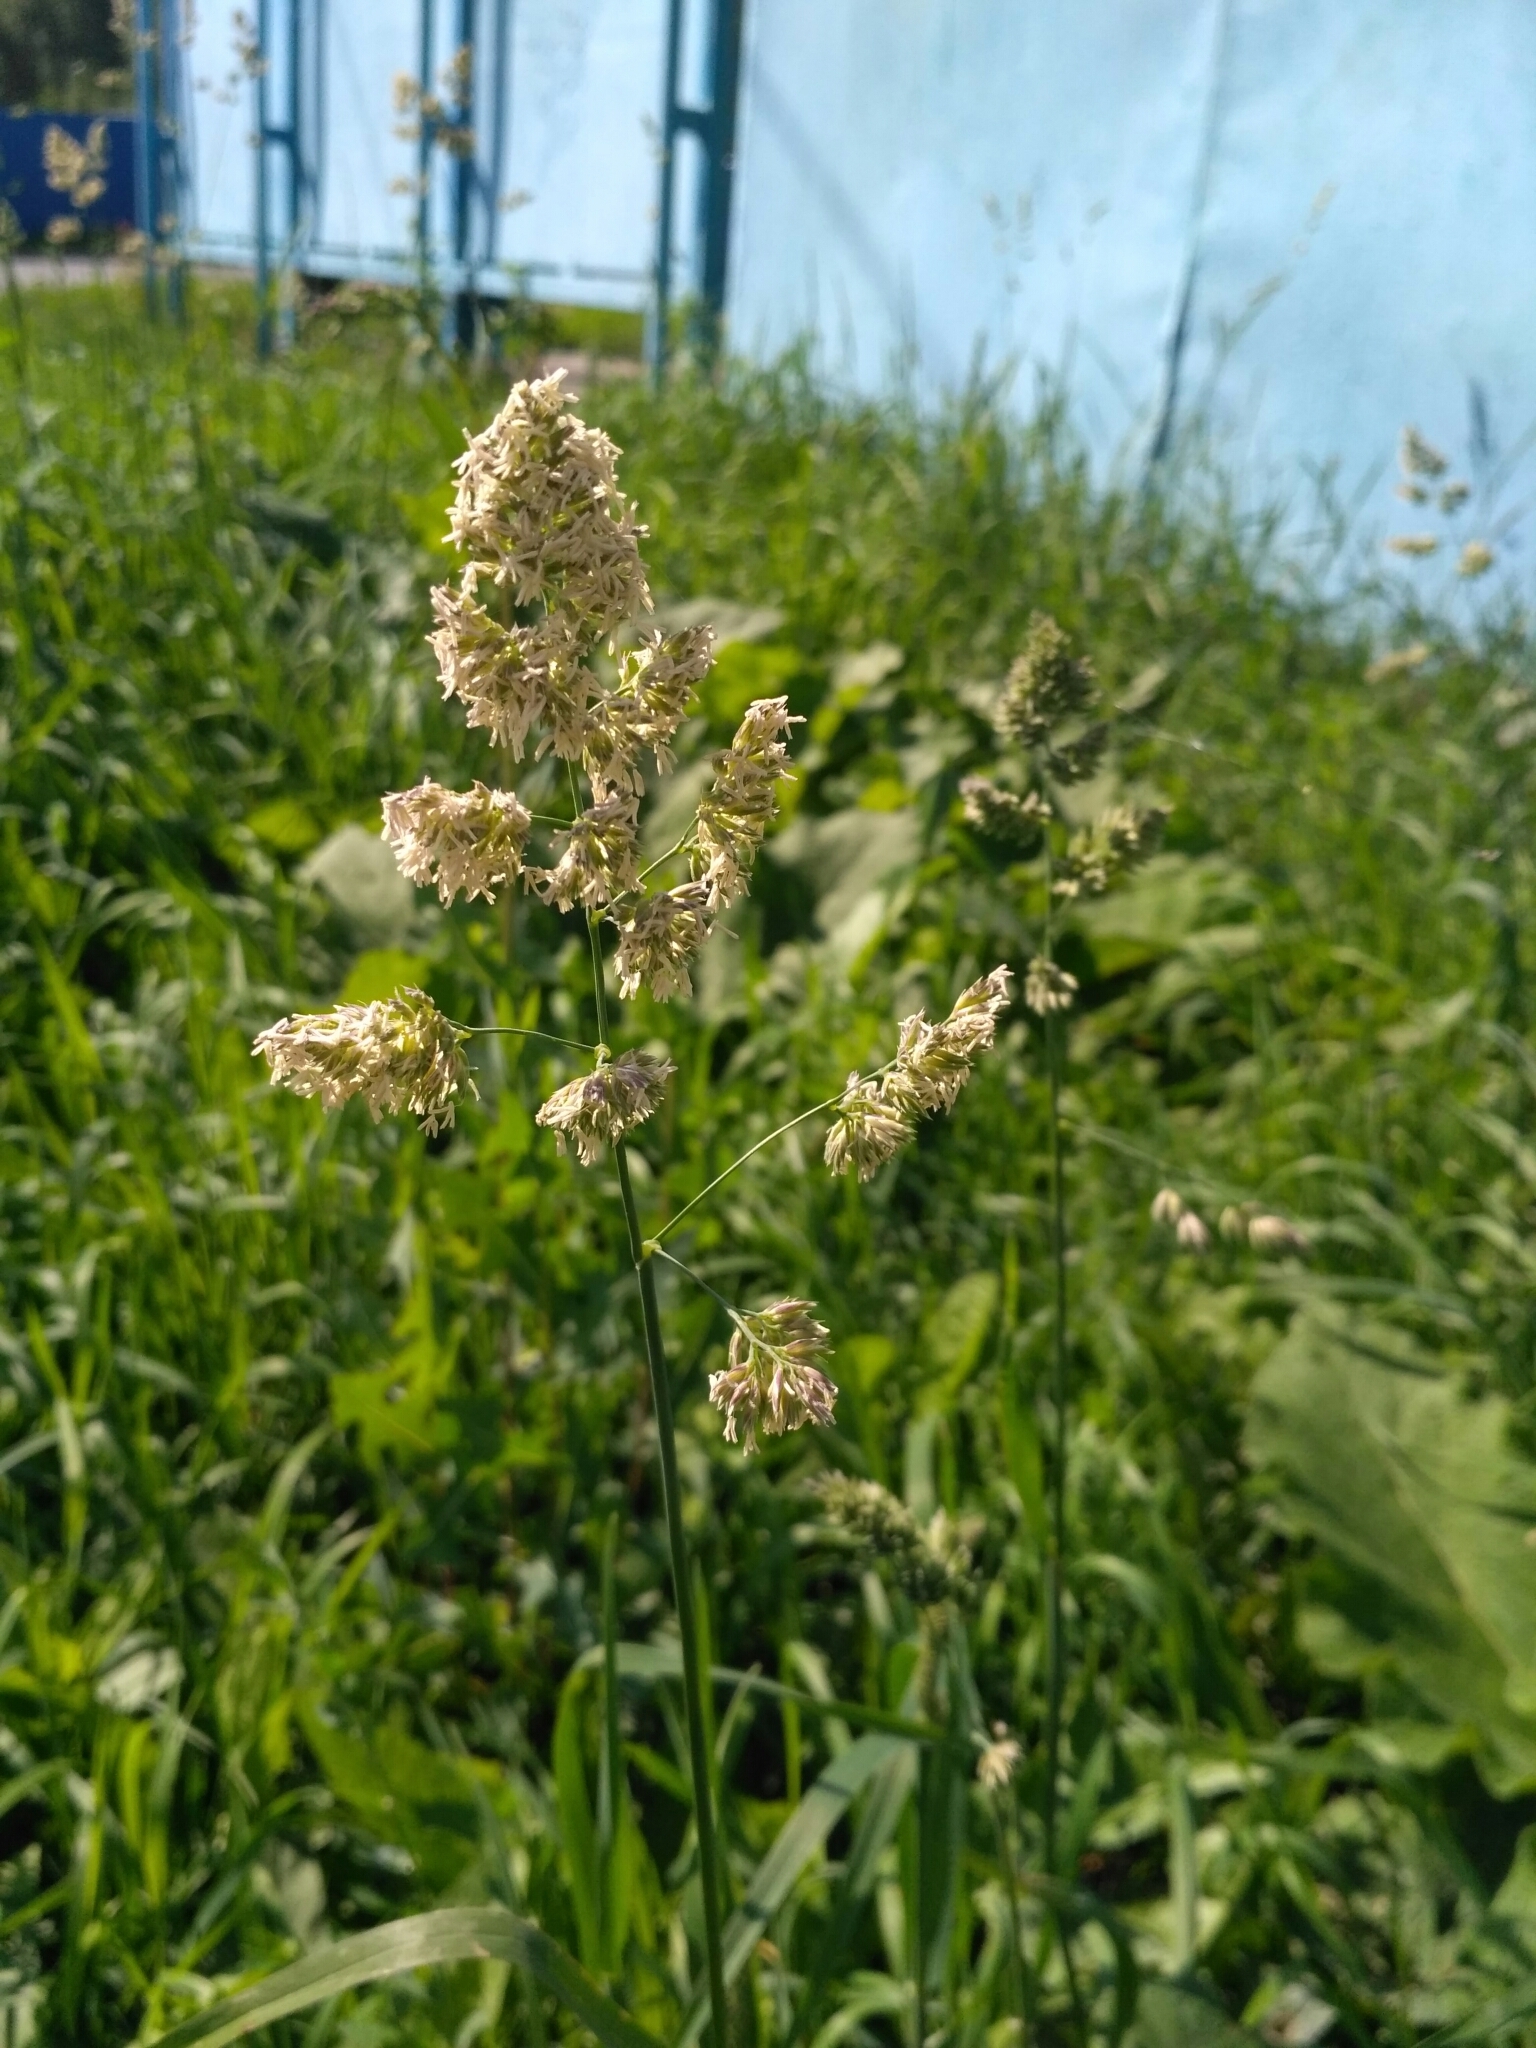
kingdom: Plantae
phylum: Tracheophyta
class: Liliopsida
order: Poales
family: Poaceae
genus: Dactylis
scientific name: Dactylis glomerata
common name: Orchardgrass
